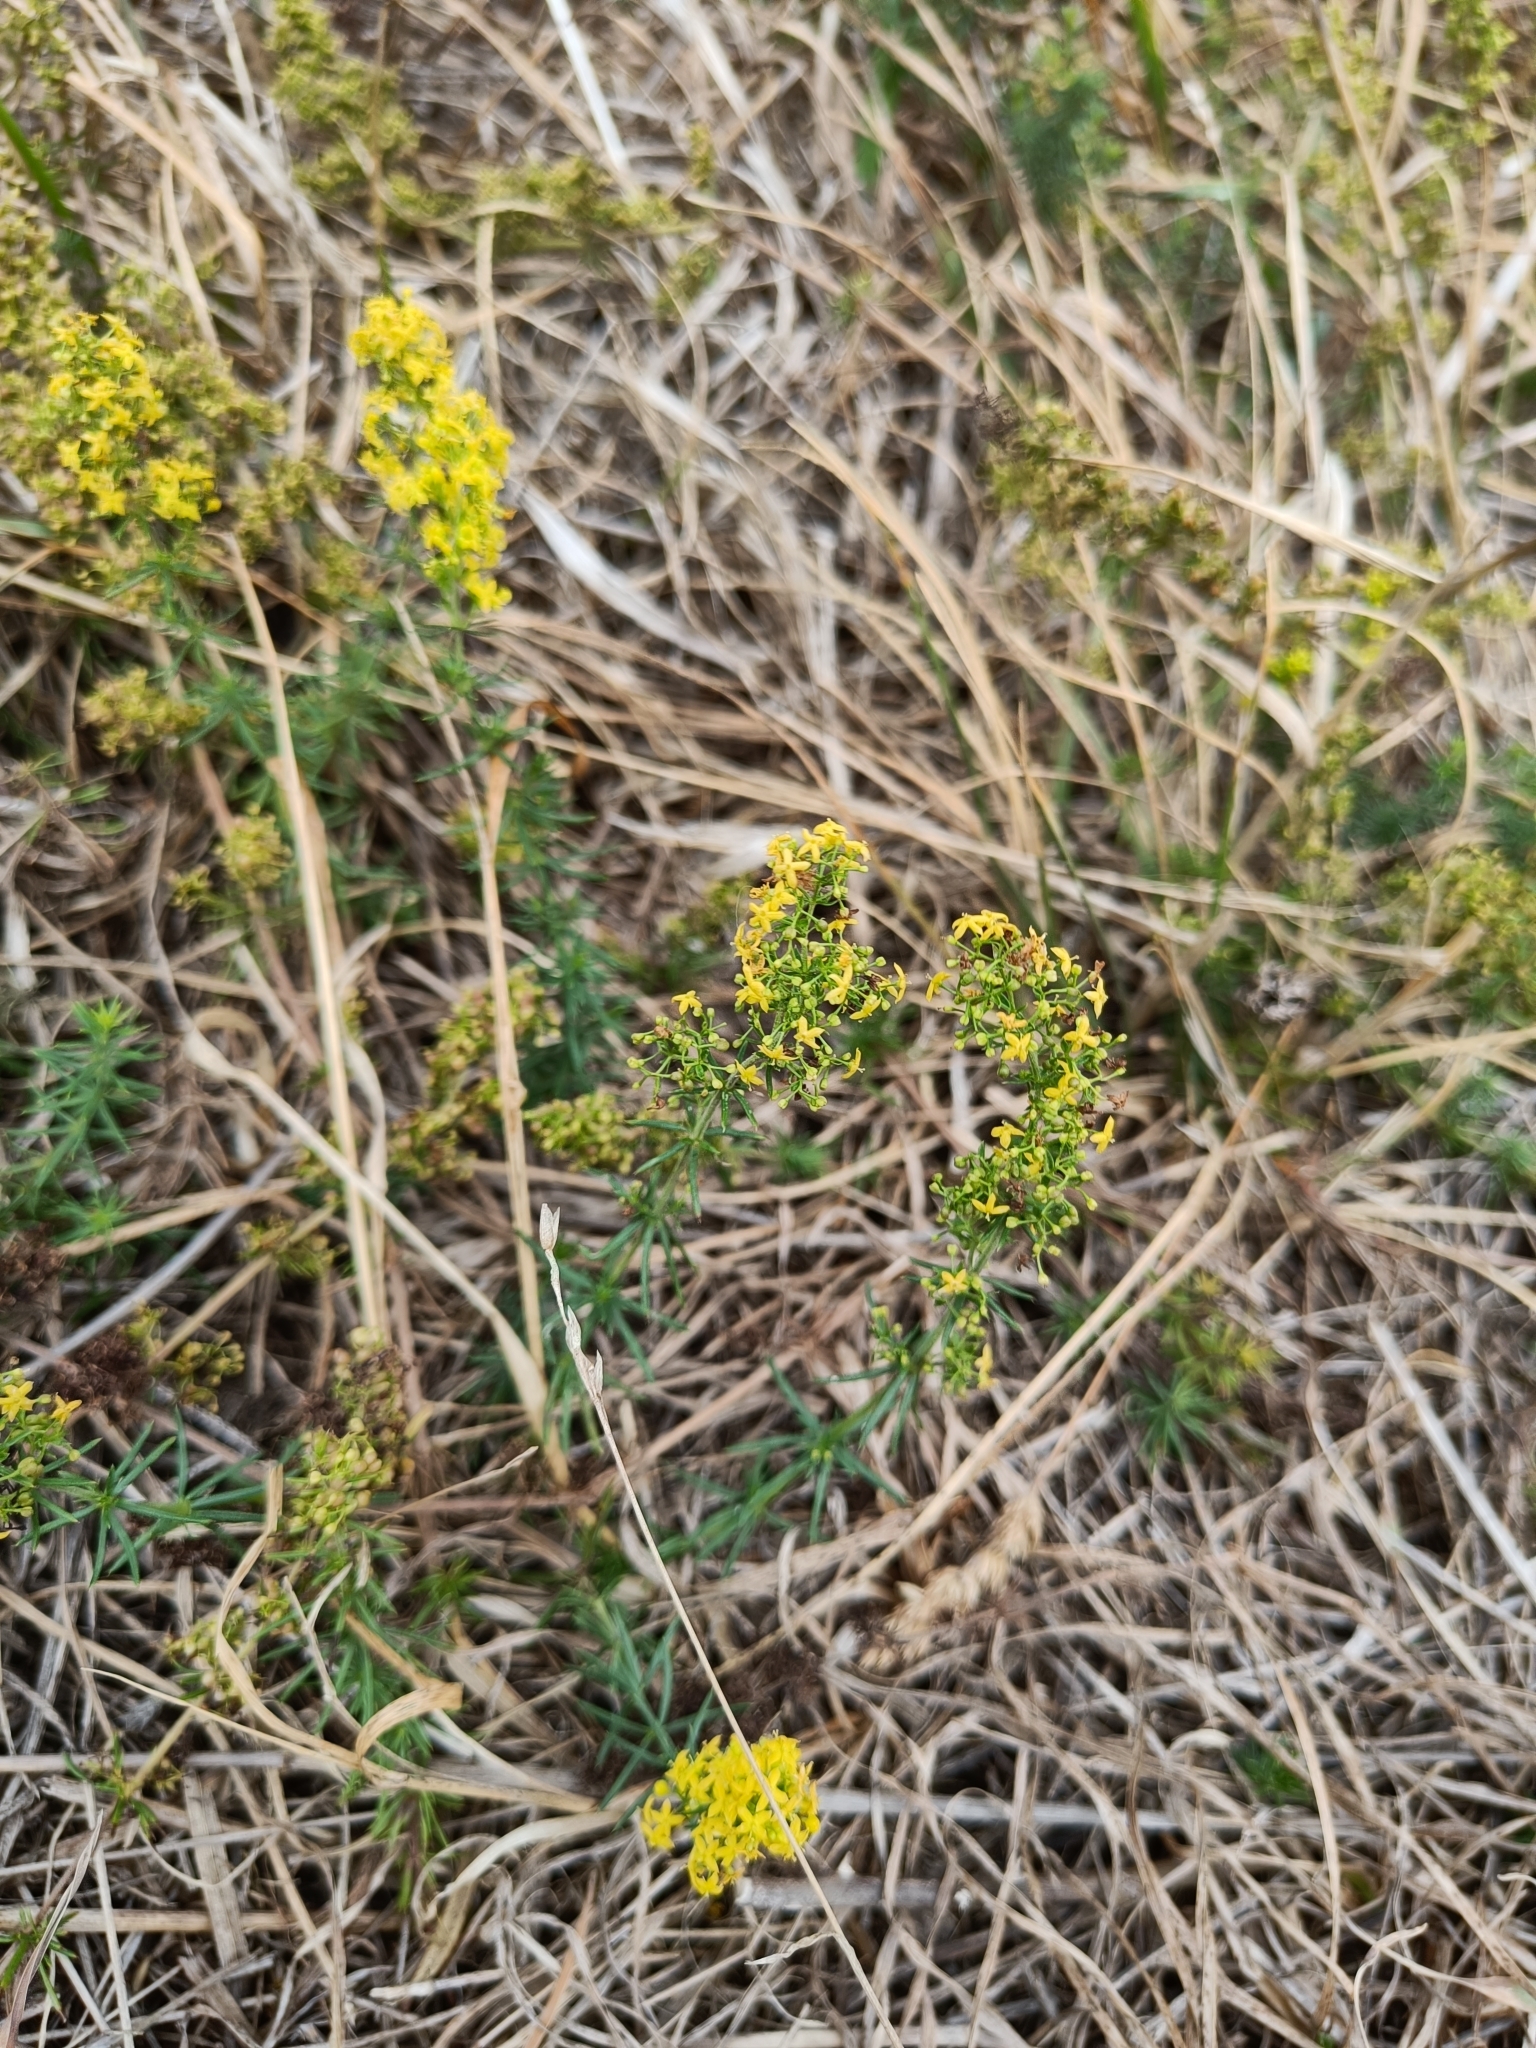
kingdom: Plantae
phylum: Tracheophyta
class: Magnoliopsida
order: Gentianales
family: Rubiaceae
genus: Galium
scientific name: Galium verum
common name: Lady's bedstraw
